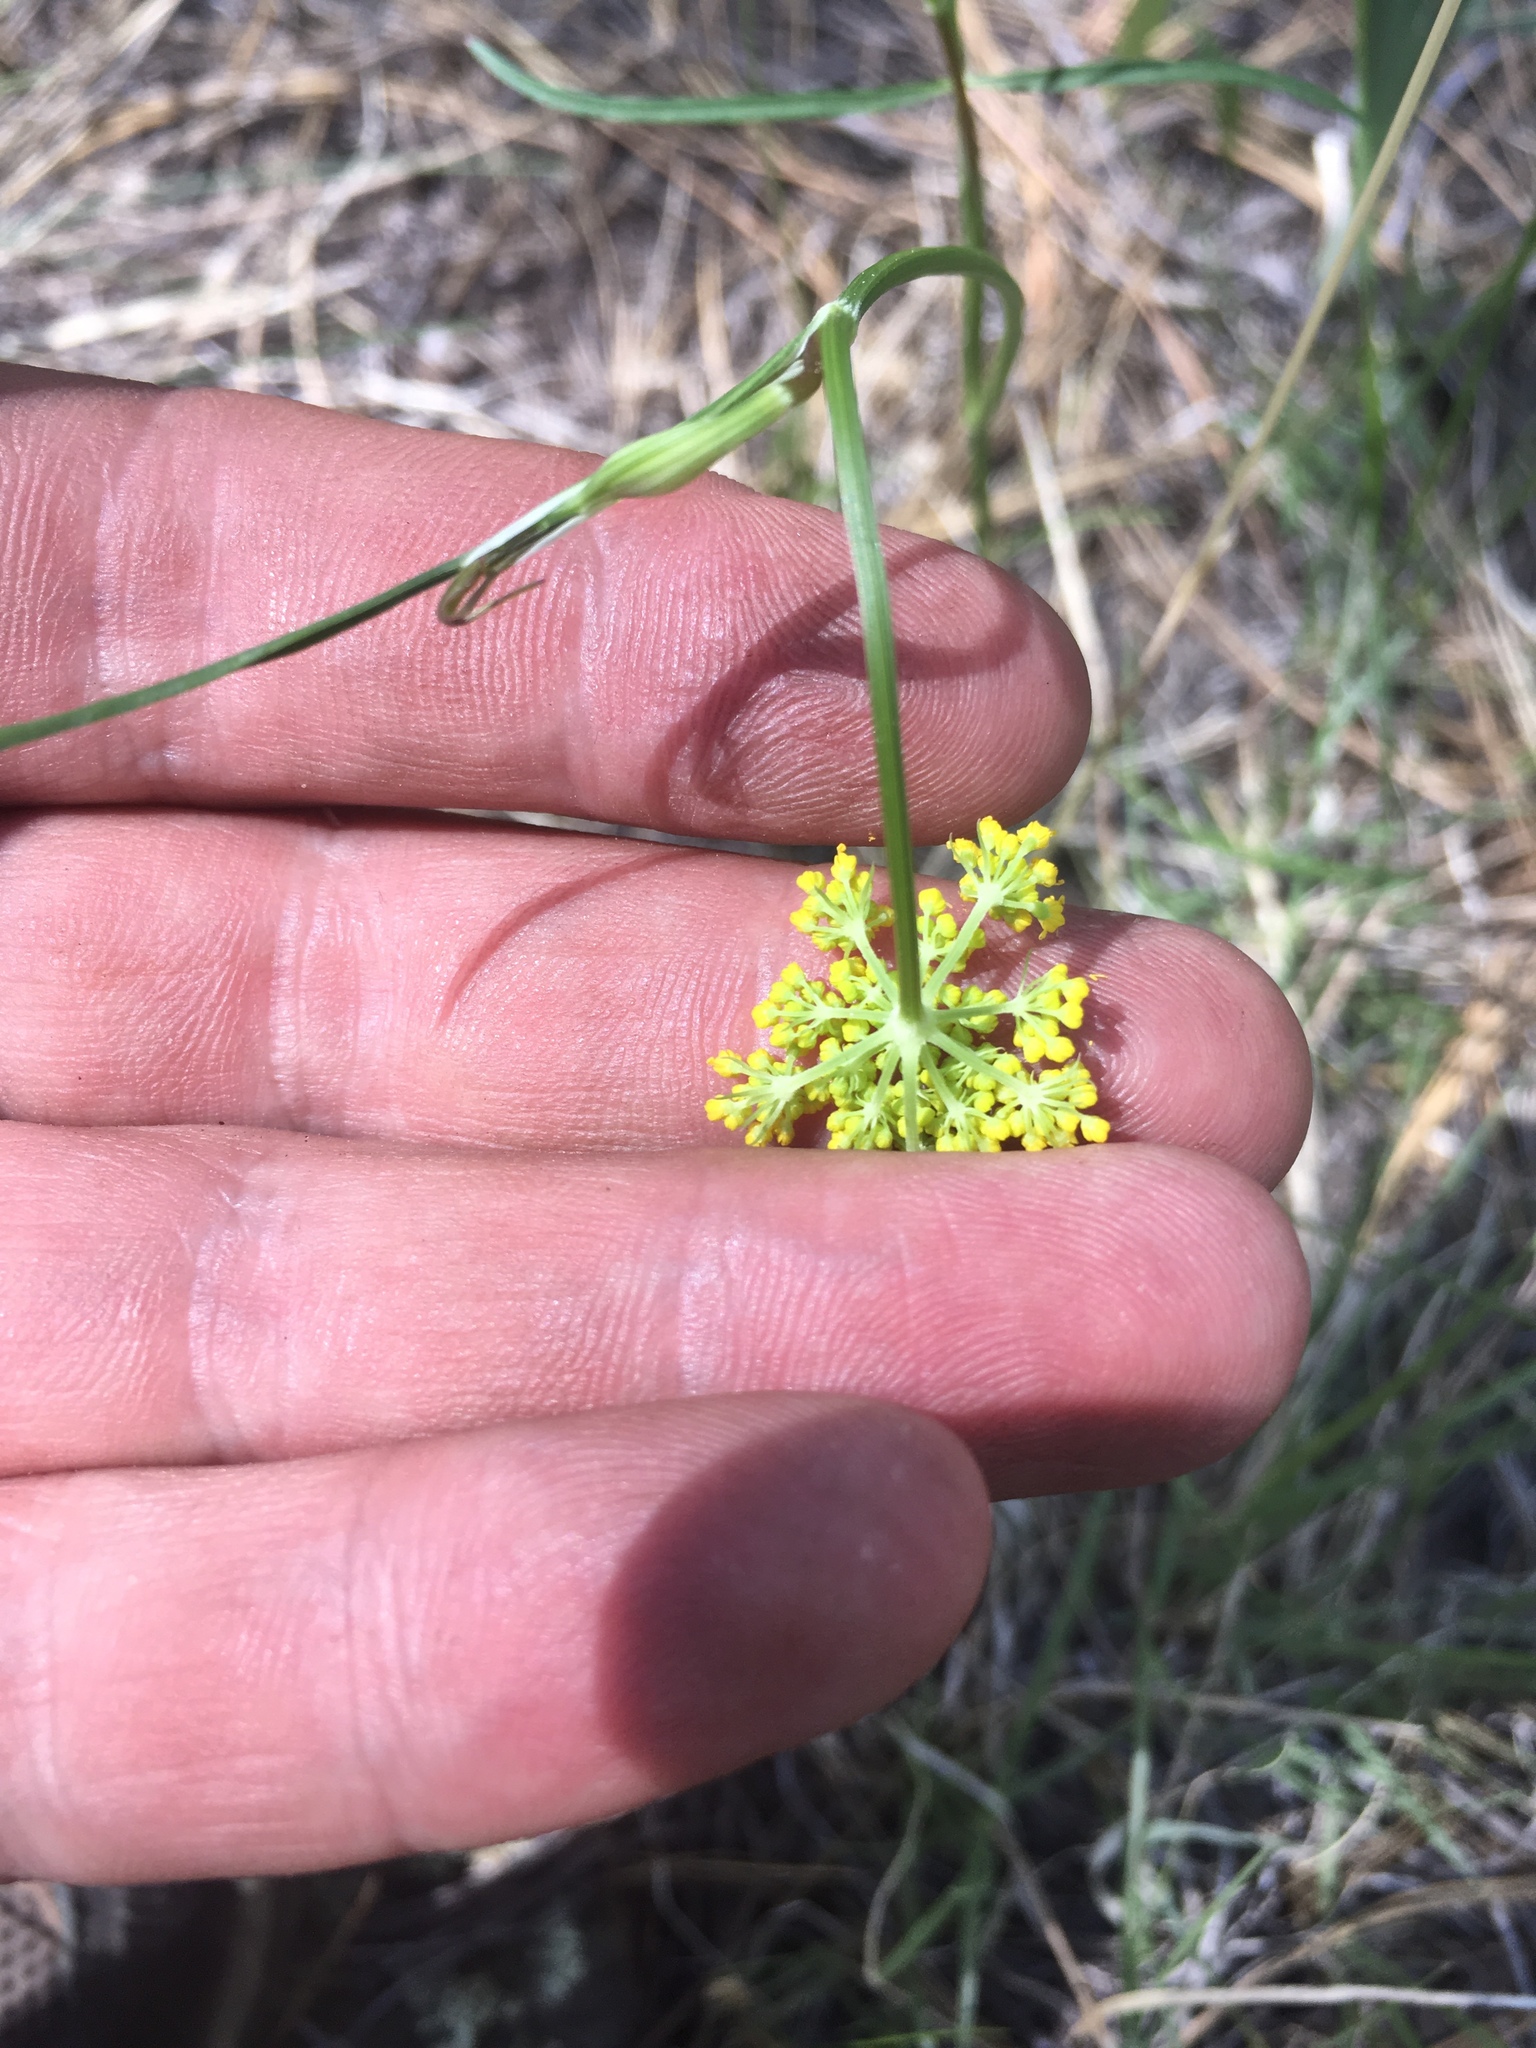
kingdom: Plantae
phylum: Tracheophyta
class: Magnoliopsida
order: Apiales
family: Apiaceae
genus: Cymopterus
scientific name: Cymopterus lemmonii
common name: Lemmon's spring-parsley
